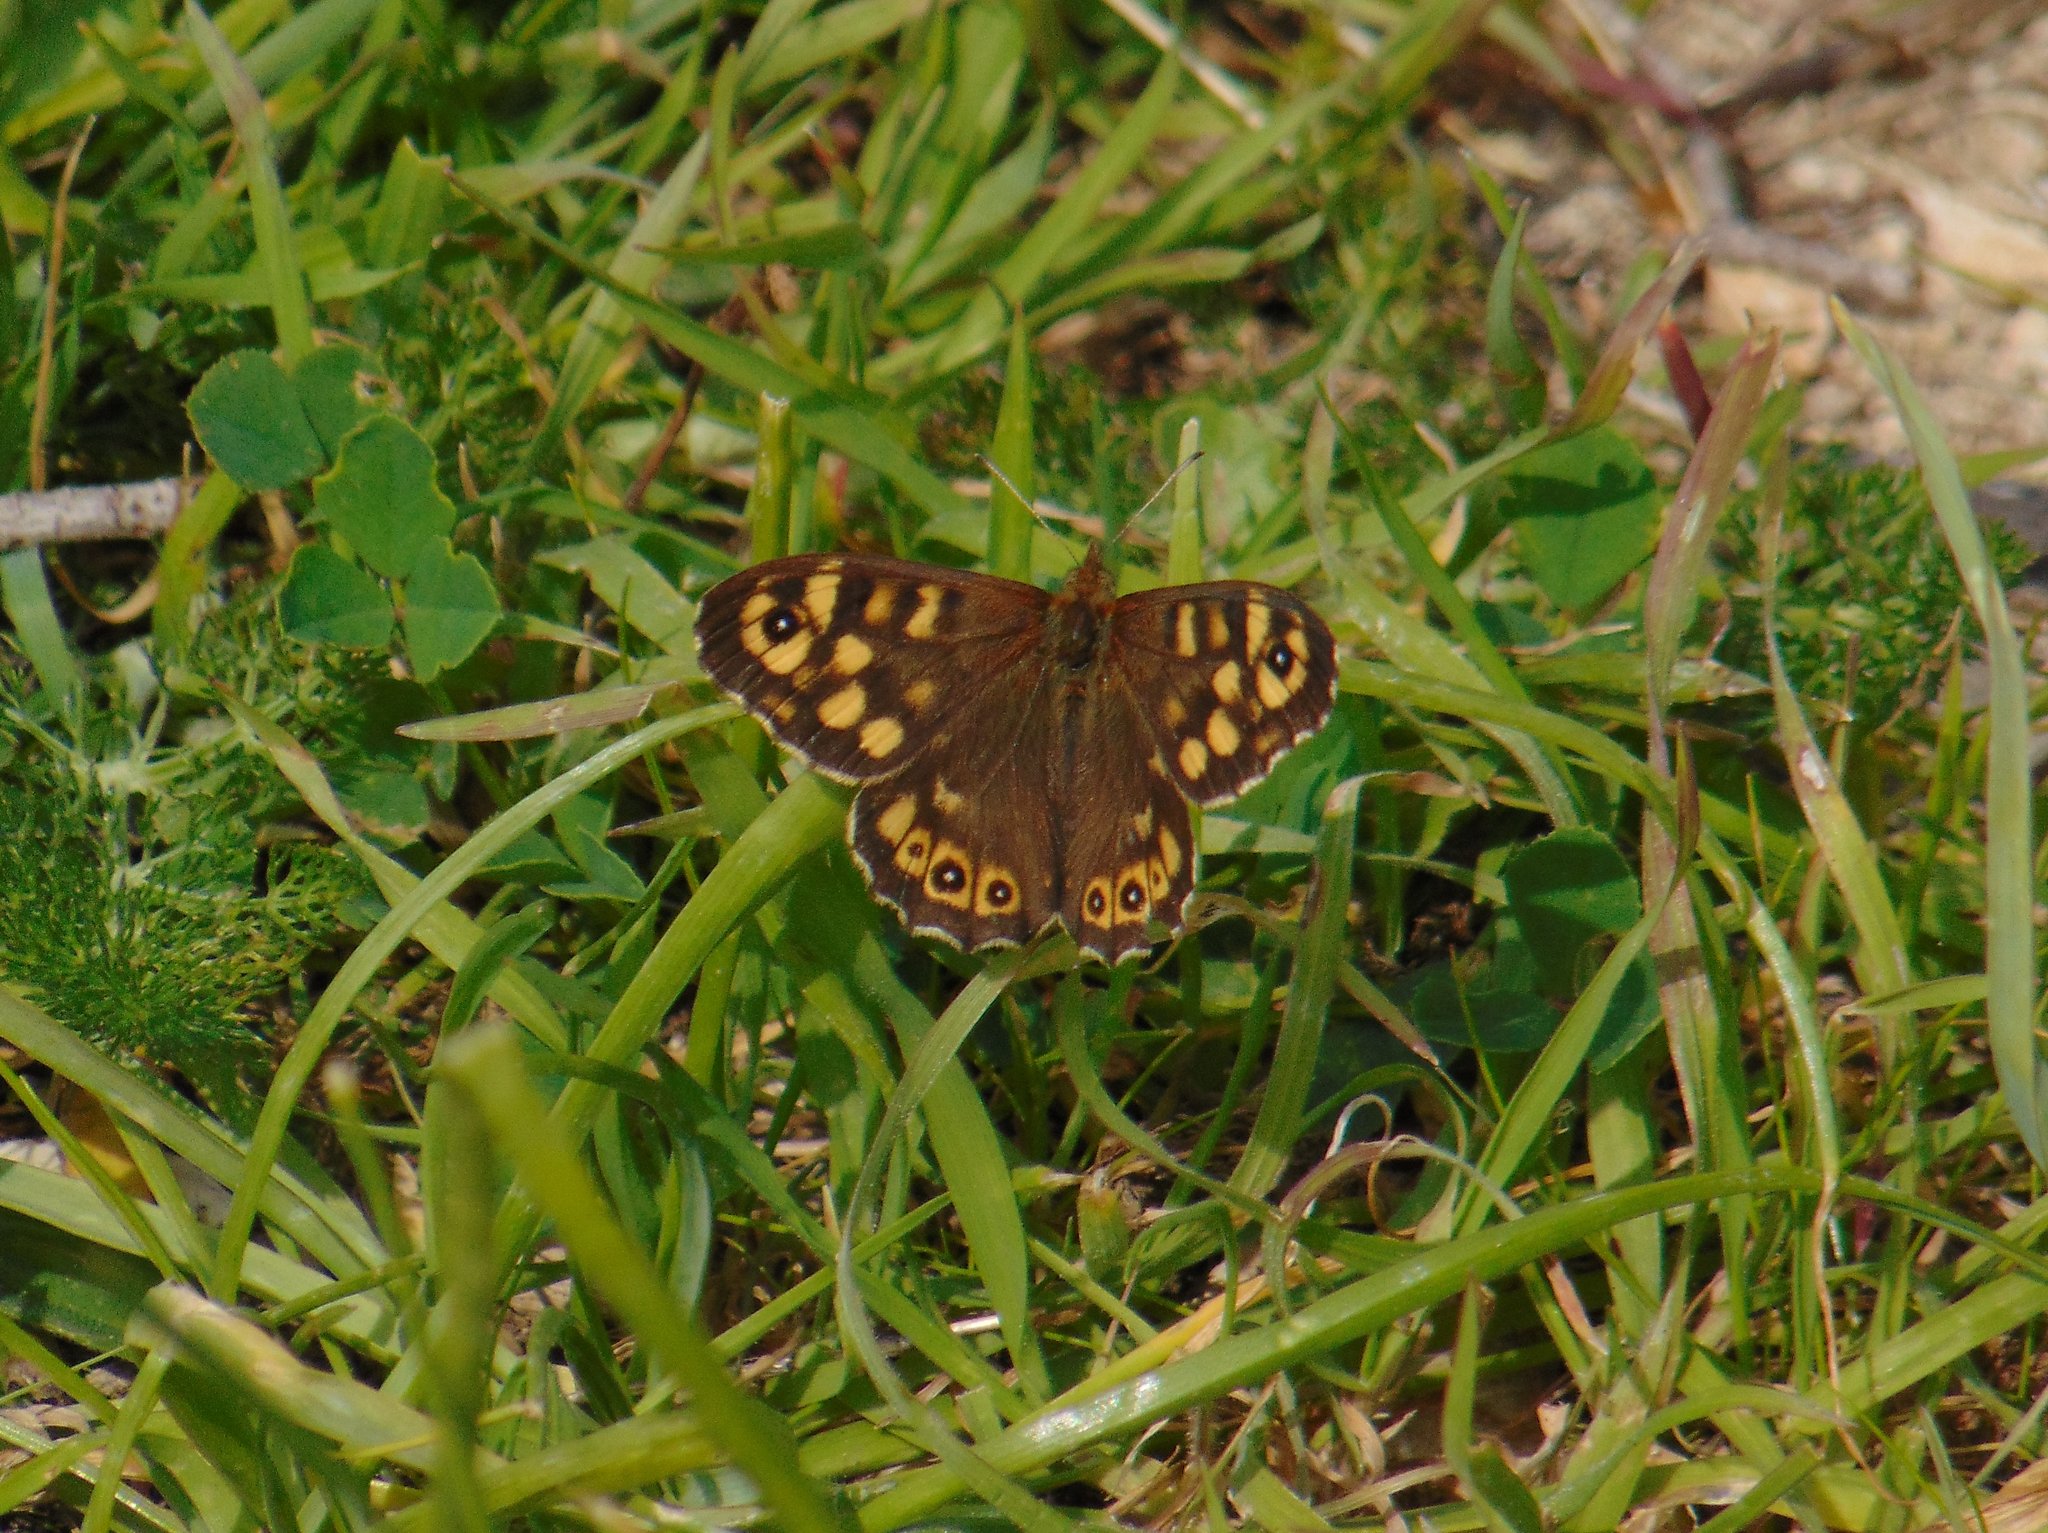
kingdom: Animalia
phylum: Arthropoda
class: Insecta
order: Lepidoptera
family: Nymphalidae
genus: Pararge
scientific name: Pararge aegeria
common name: Speckled wood
